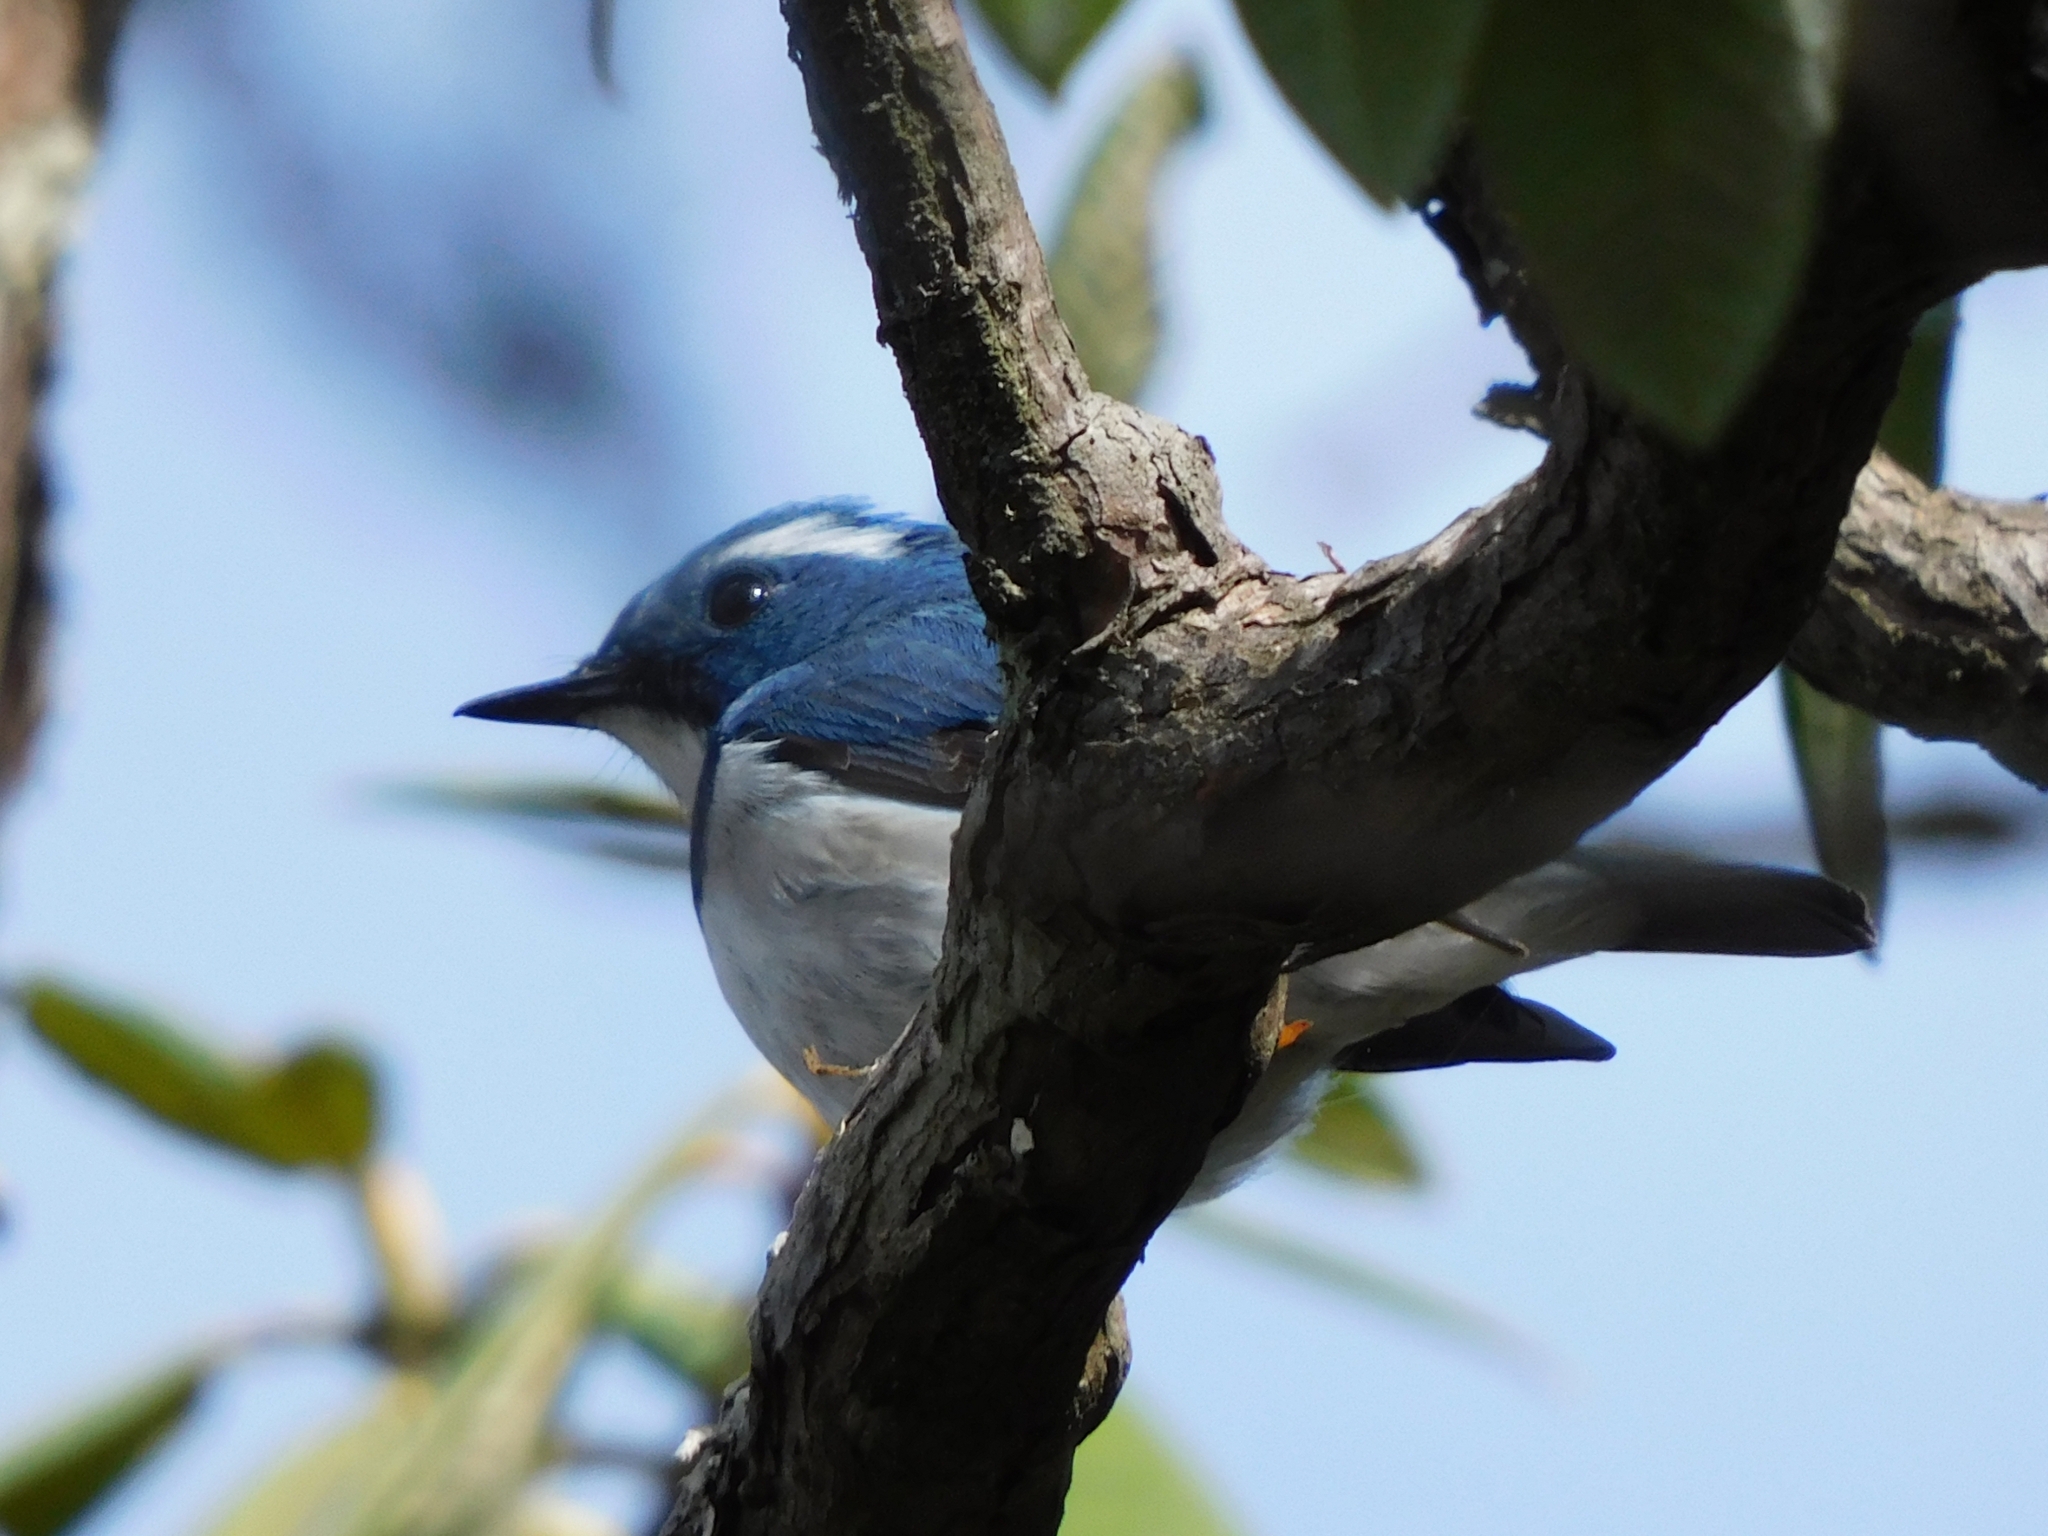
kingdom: Animalia
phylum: Chordata
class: Aves
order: Passeriformes
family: Muscicapidae
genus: Ficedula
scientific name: Ficedula superciliaris
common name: Ultramarine flycatcher
